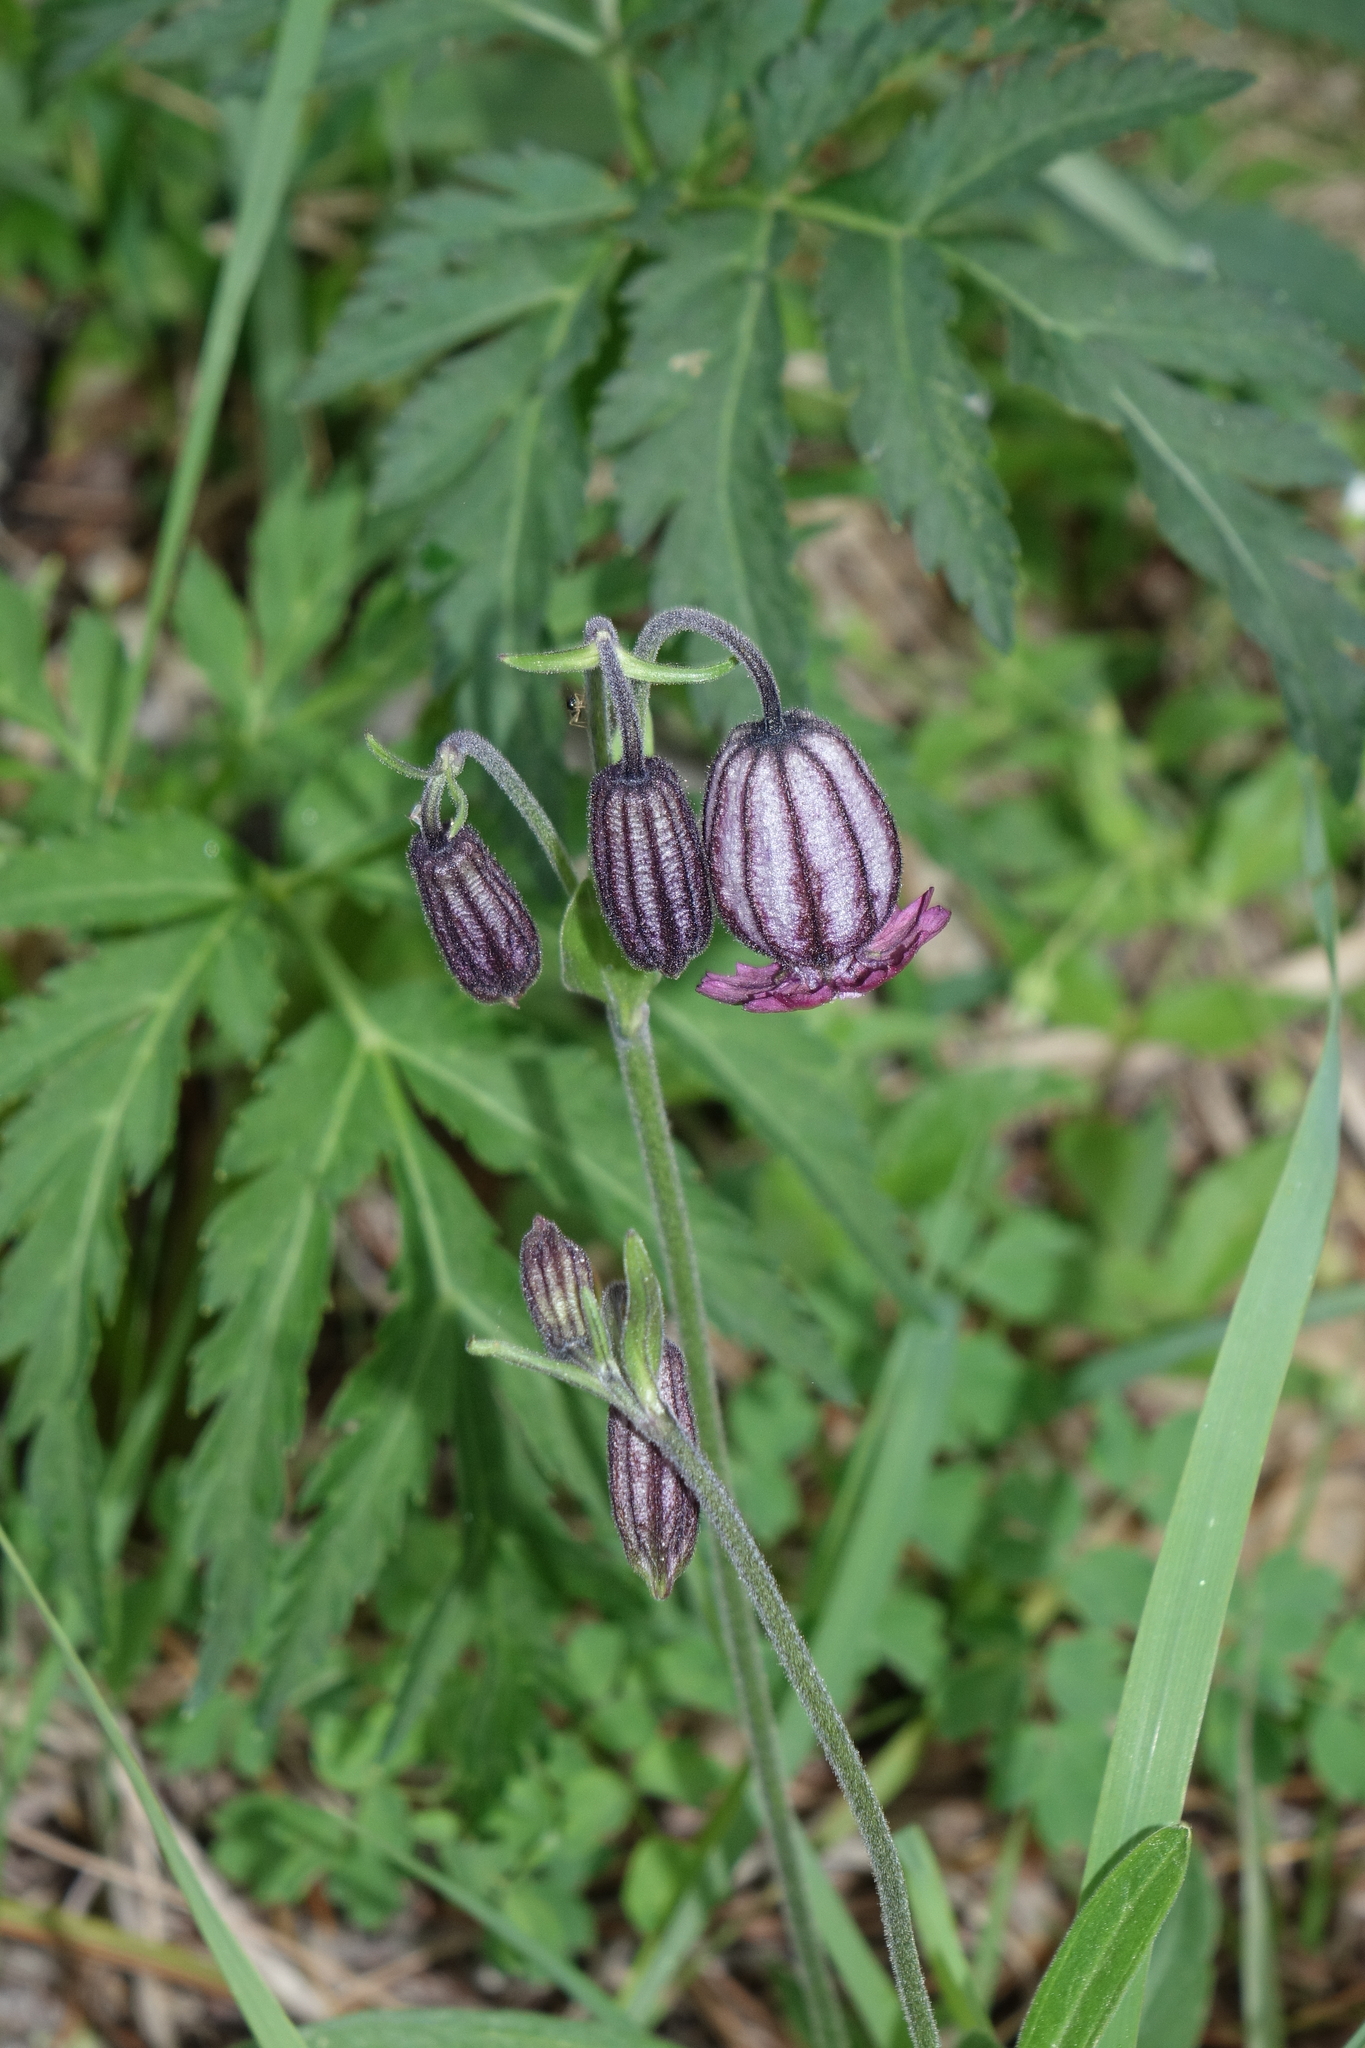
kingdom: Plantae
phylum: Tracheophyta
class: Magnoliopsida
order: Caryophyllales
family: Caryophyllaceae
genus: Silene
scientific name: Silene bungei
